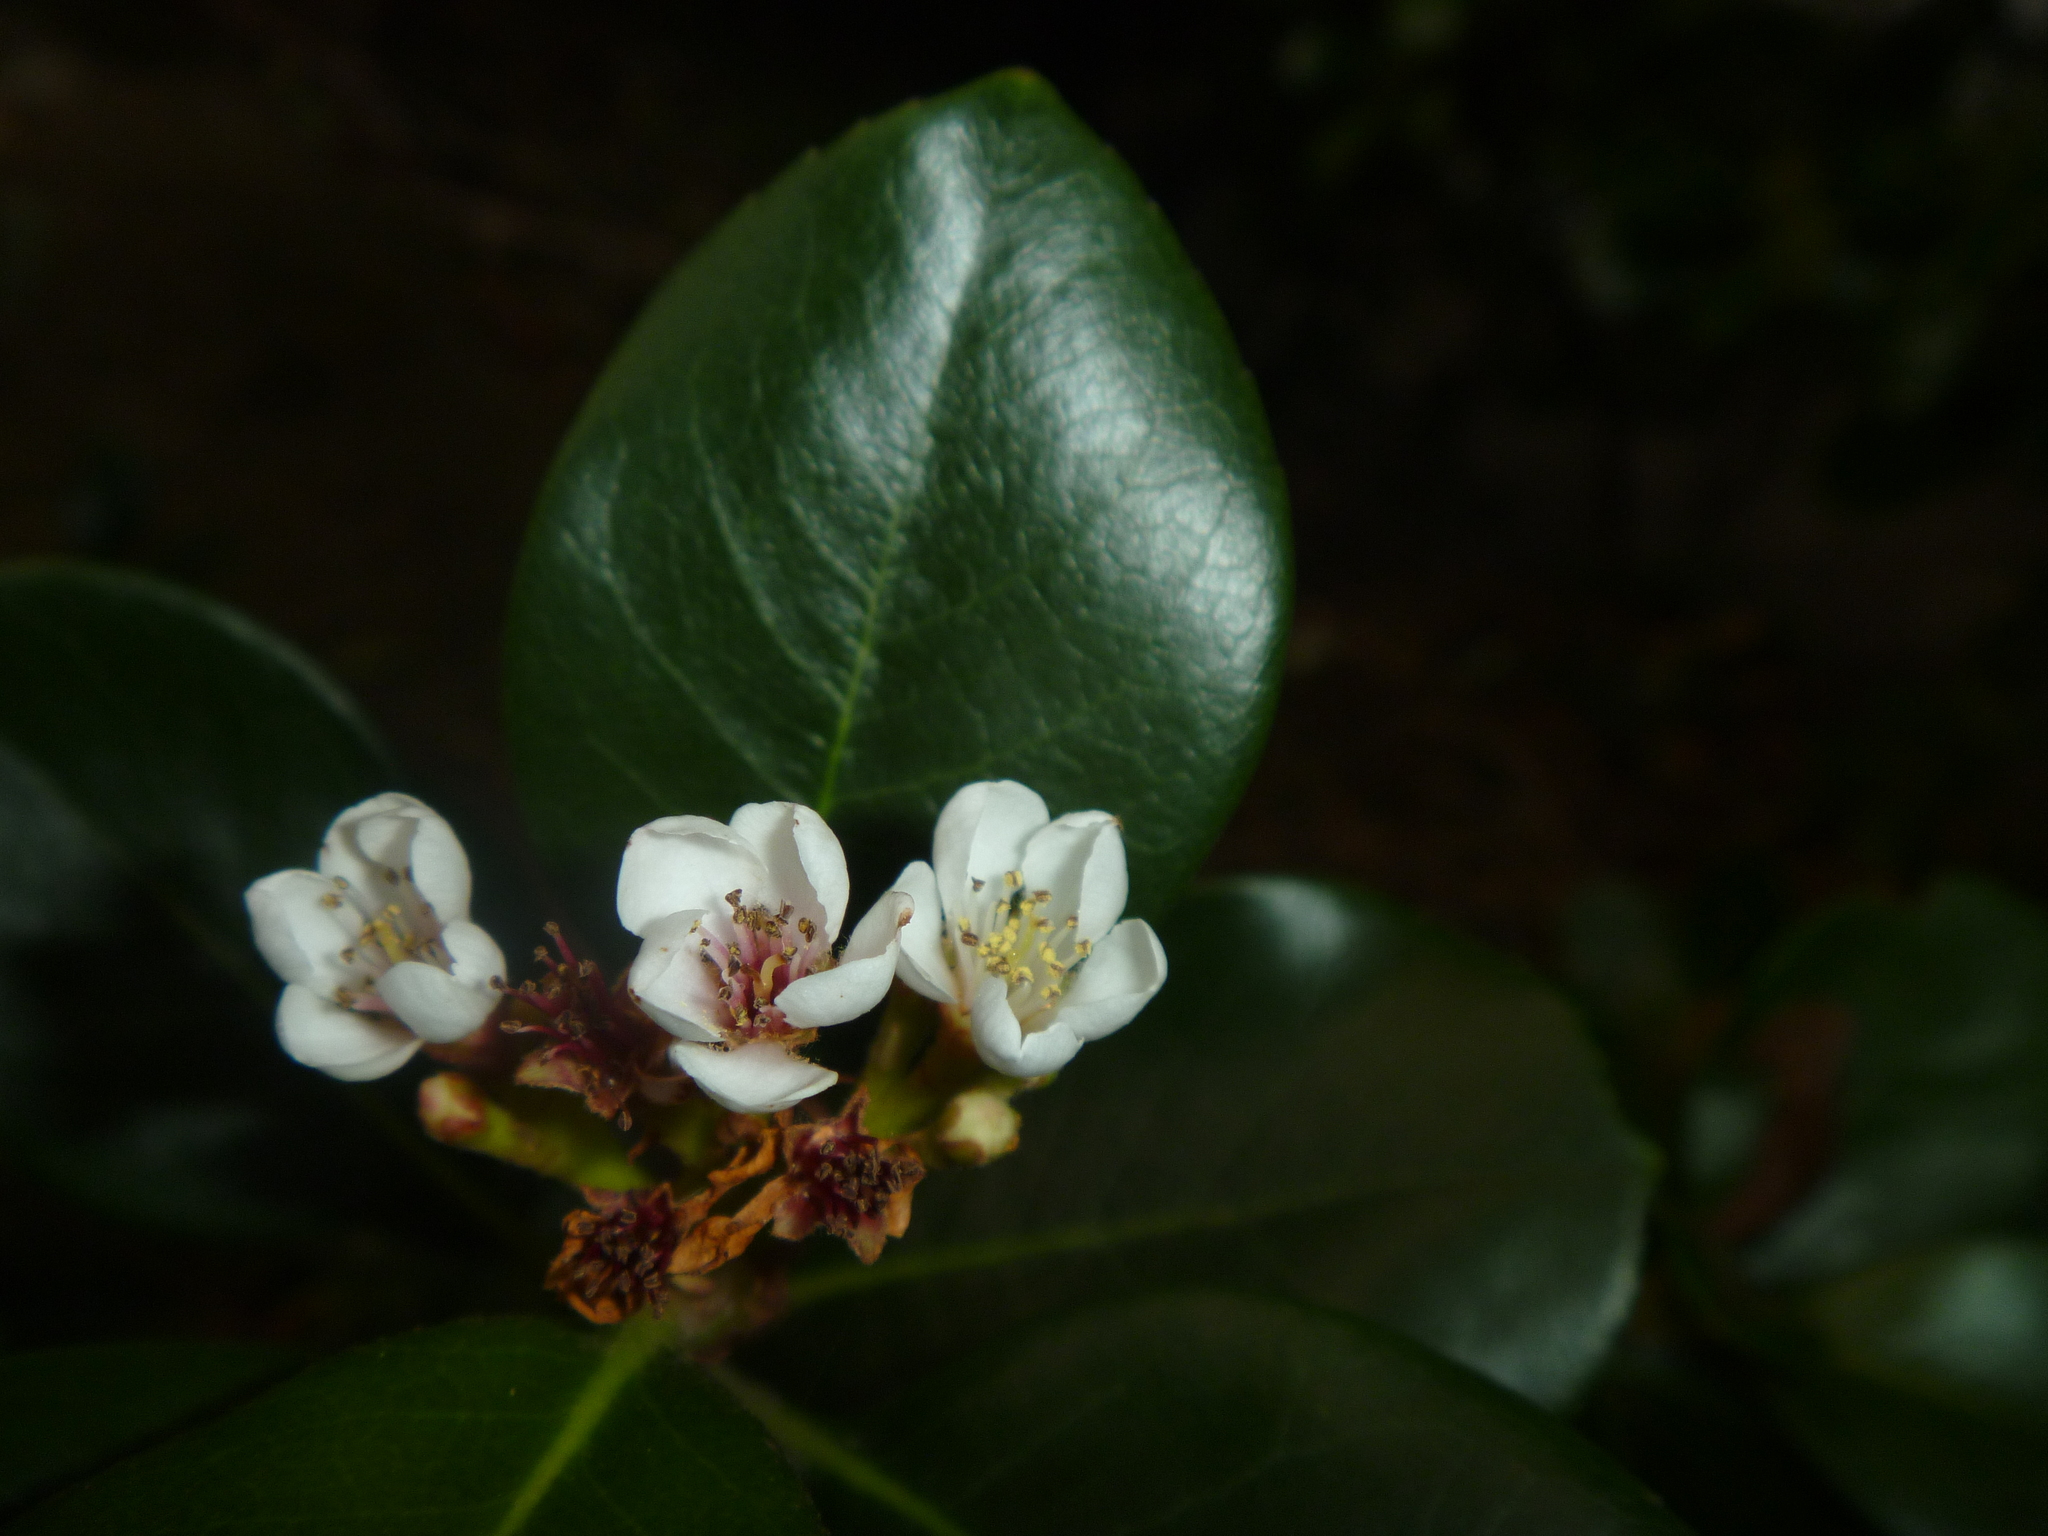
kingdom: Plantae
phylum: Tracheophyta
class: Magnoliopsida
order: Rosales
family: Rosaceae
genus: Rhaphiolepis
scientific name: Rhaphiolepis indica
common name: India-hawthorn
